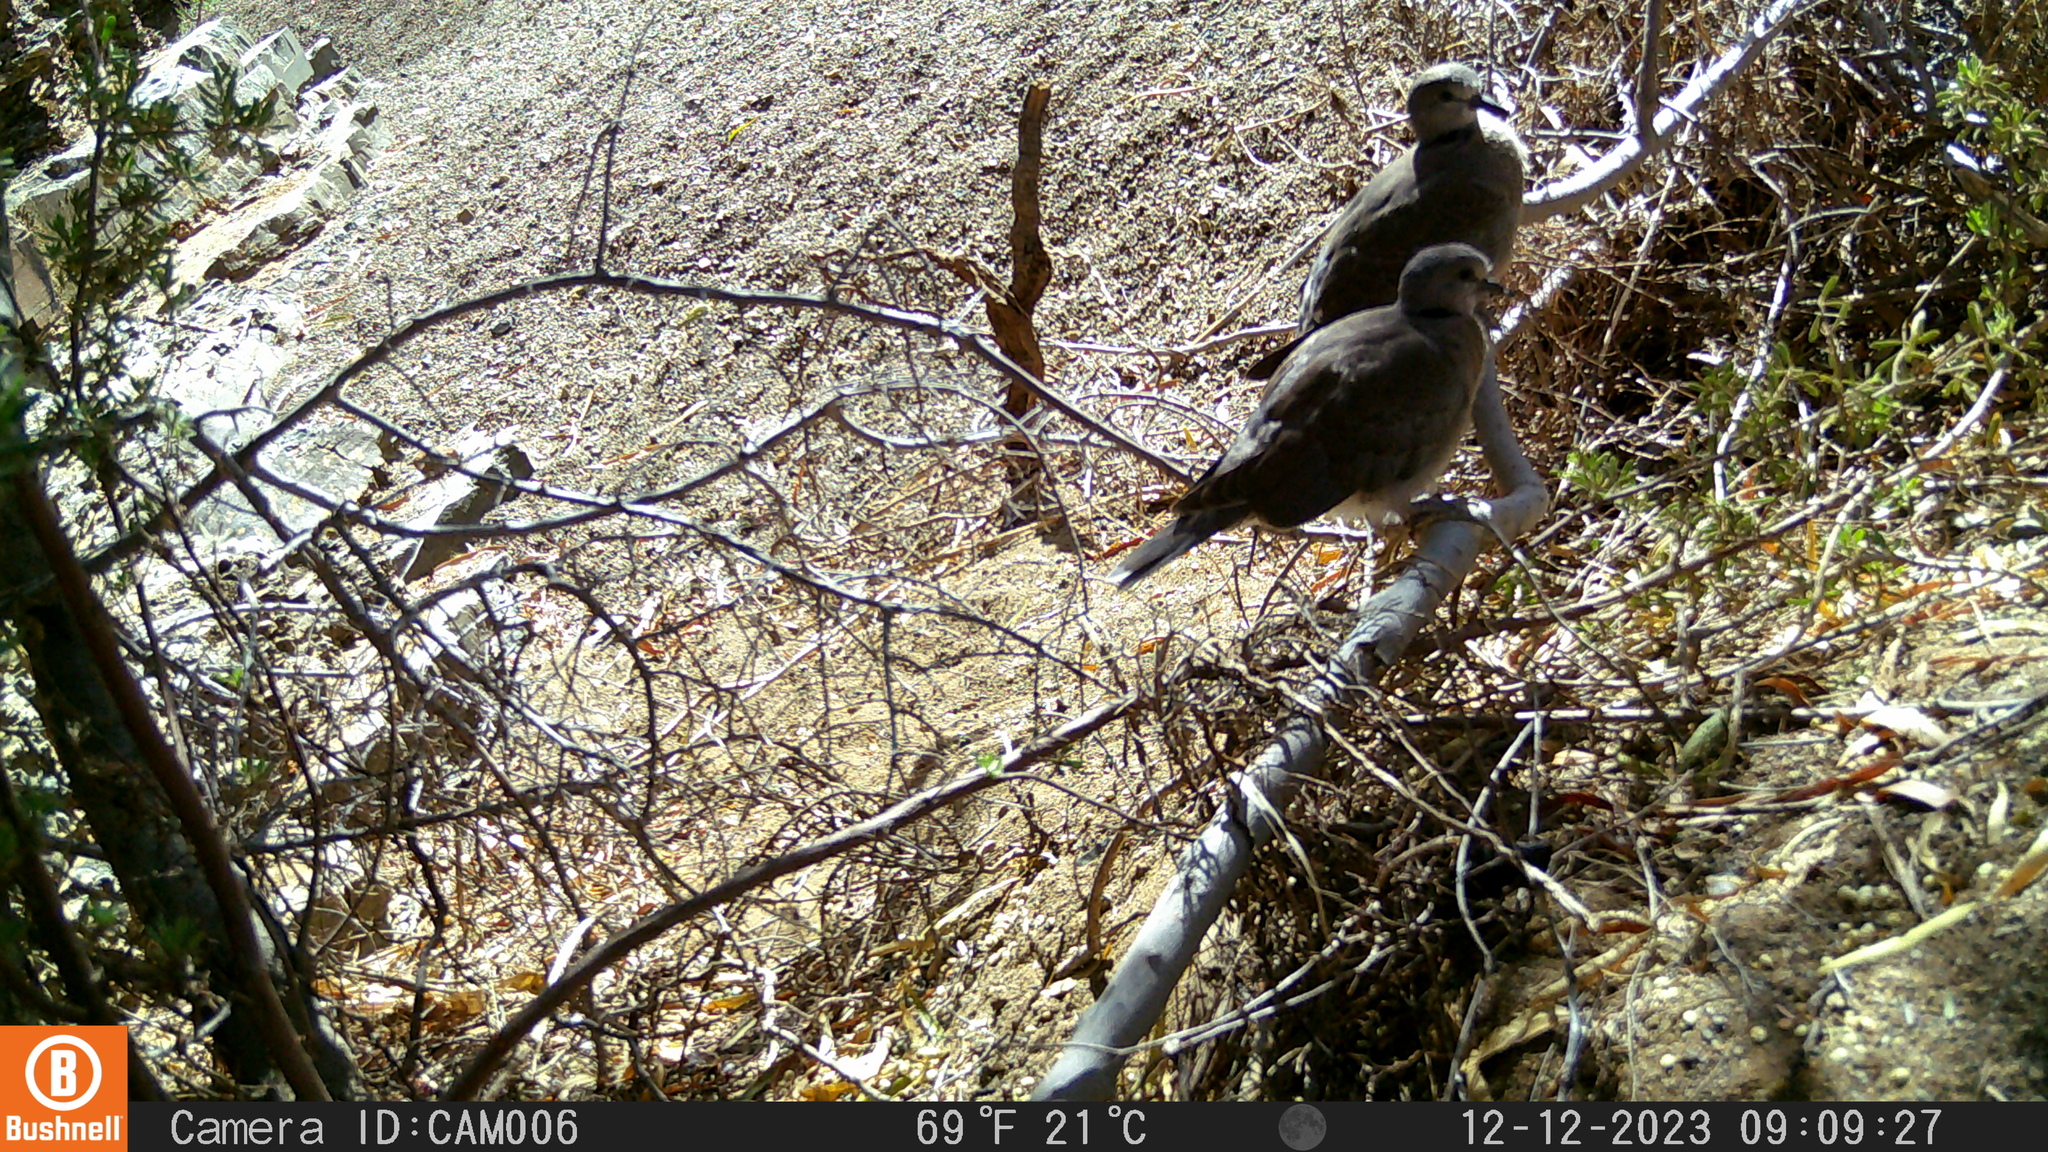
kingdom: Animalia
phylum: Chordata
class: Aves
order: Columbiformes
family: Columbidae
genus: Streptopelia
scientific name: Streptopelia capicola
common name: Ring-necked dove
